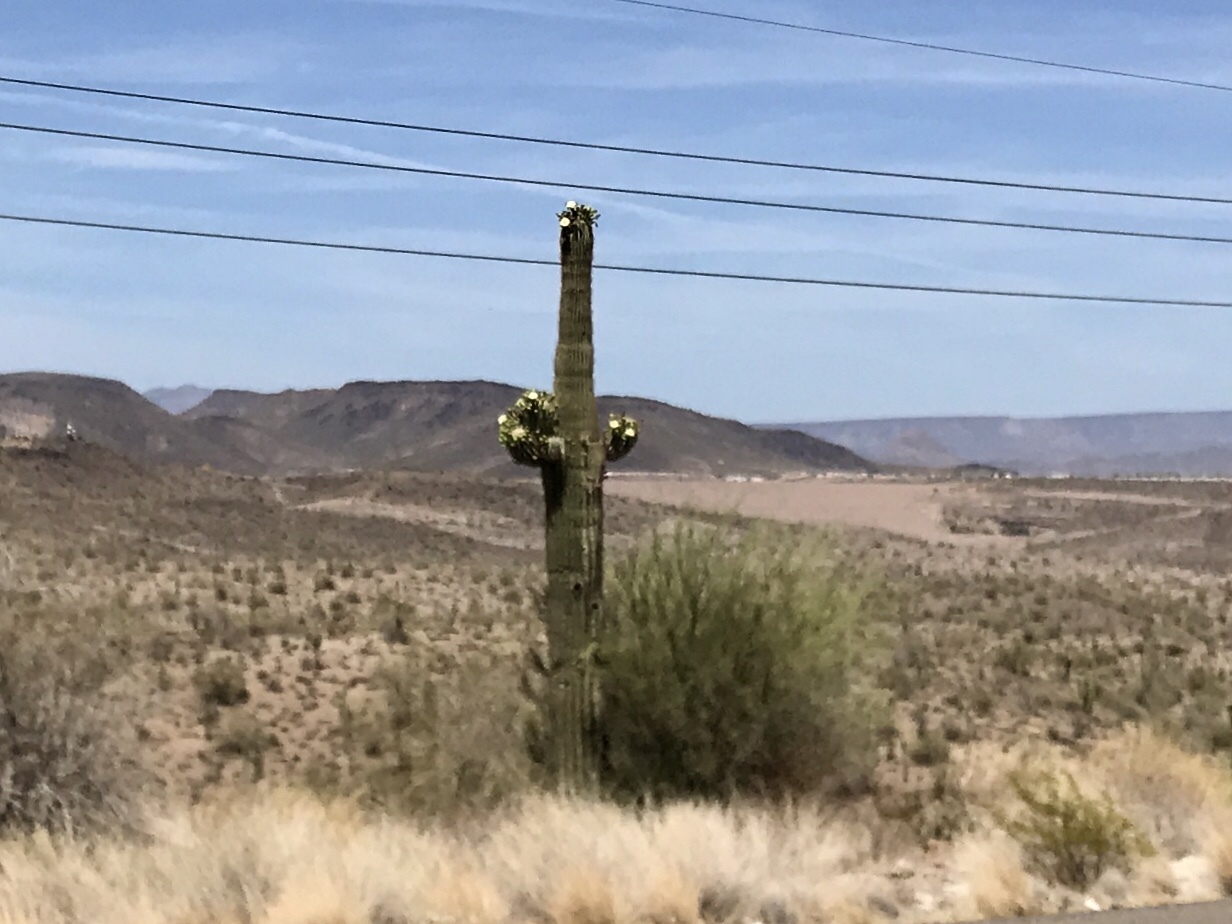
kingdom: Plantae
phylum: Tracheophyta
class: Magnoliopsida
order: Caryophyllales
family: Cactaceae
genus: Carnegiea
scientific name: Carnegiea gigantea
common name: Saguaro
